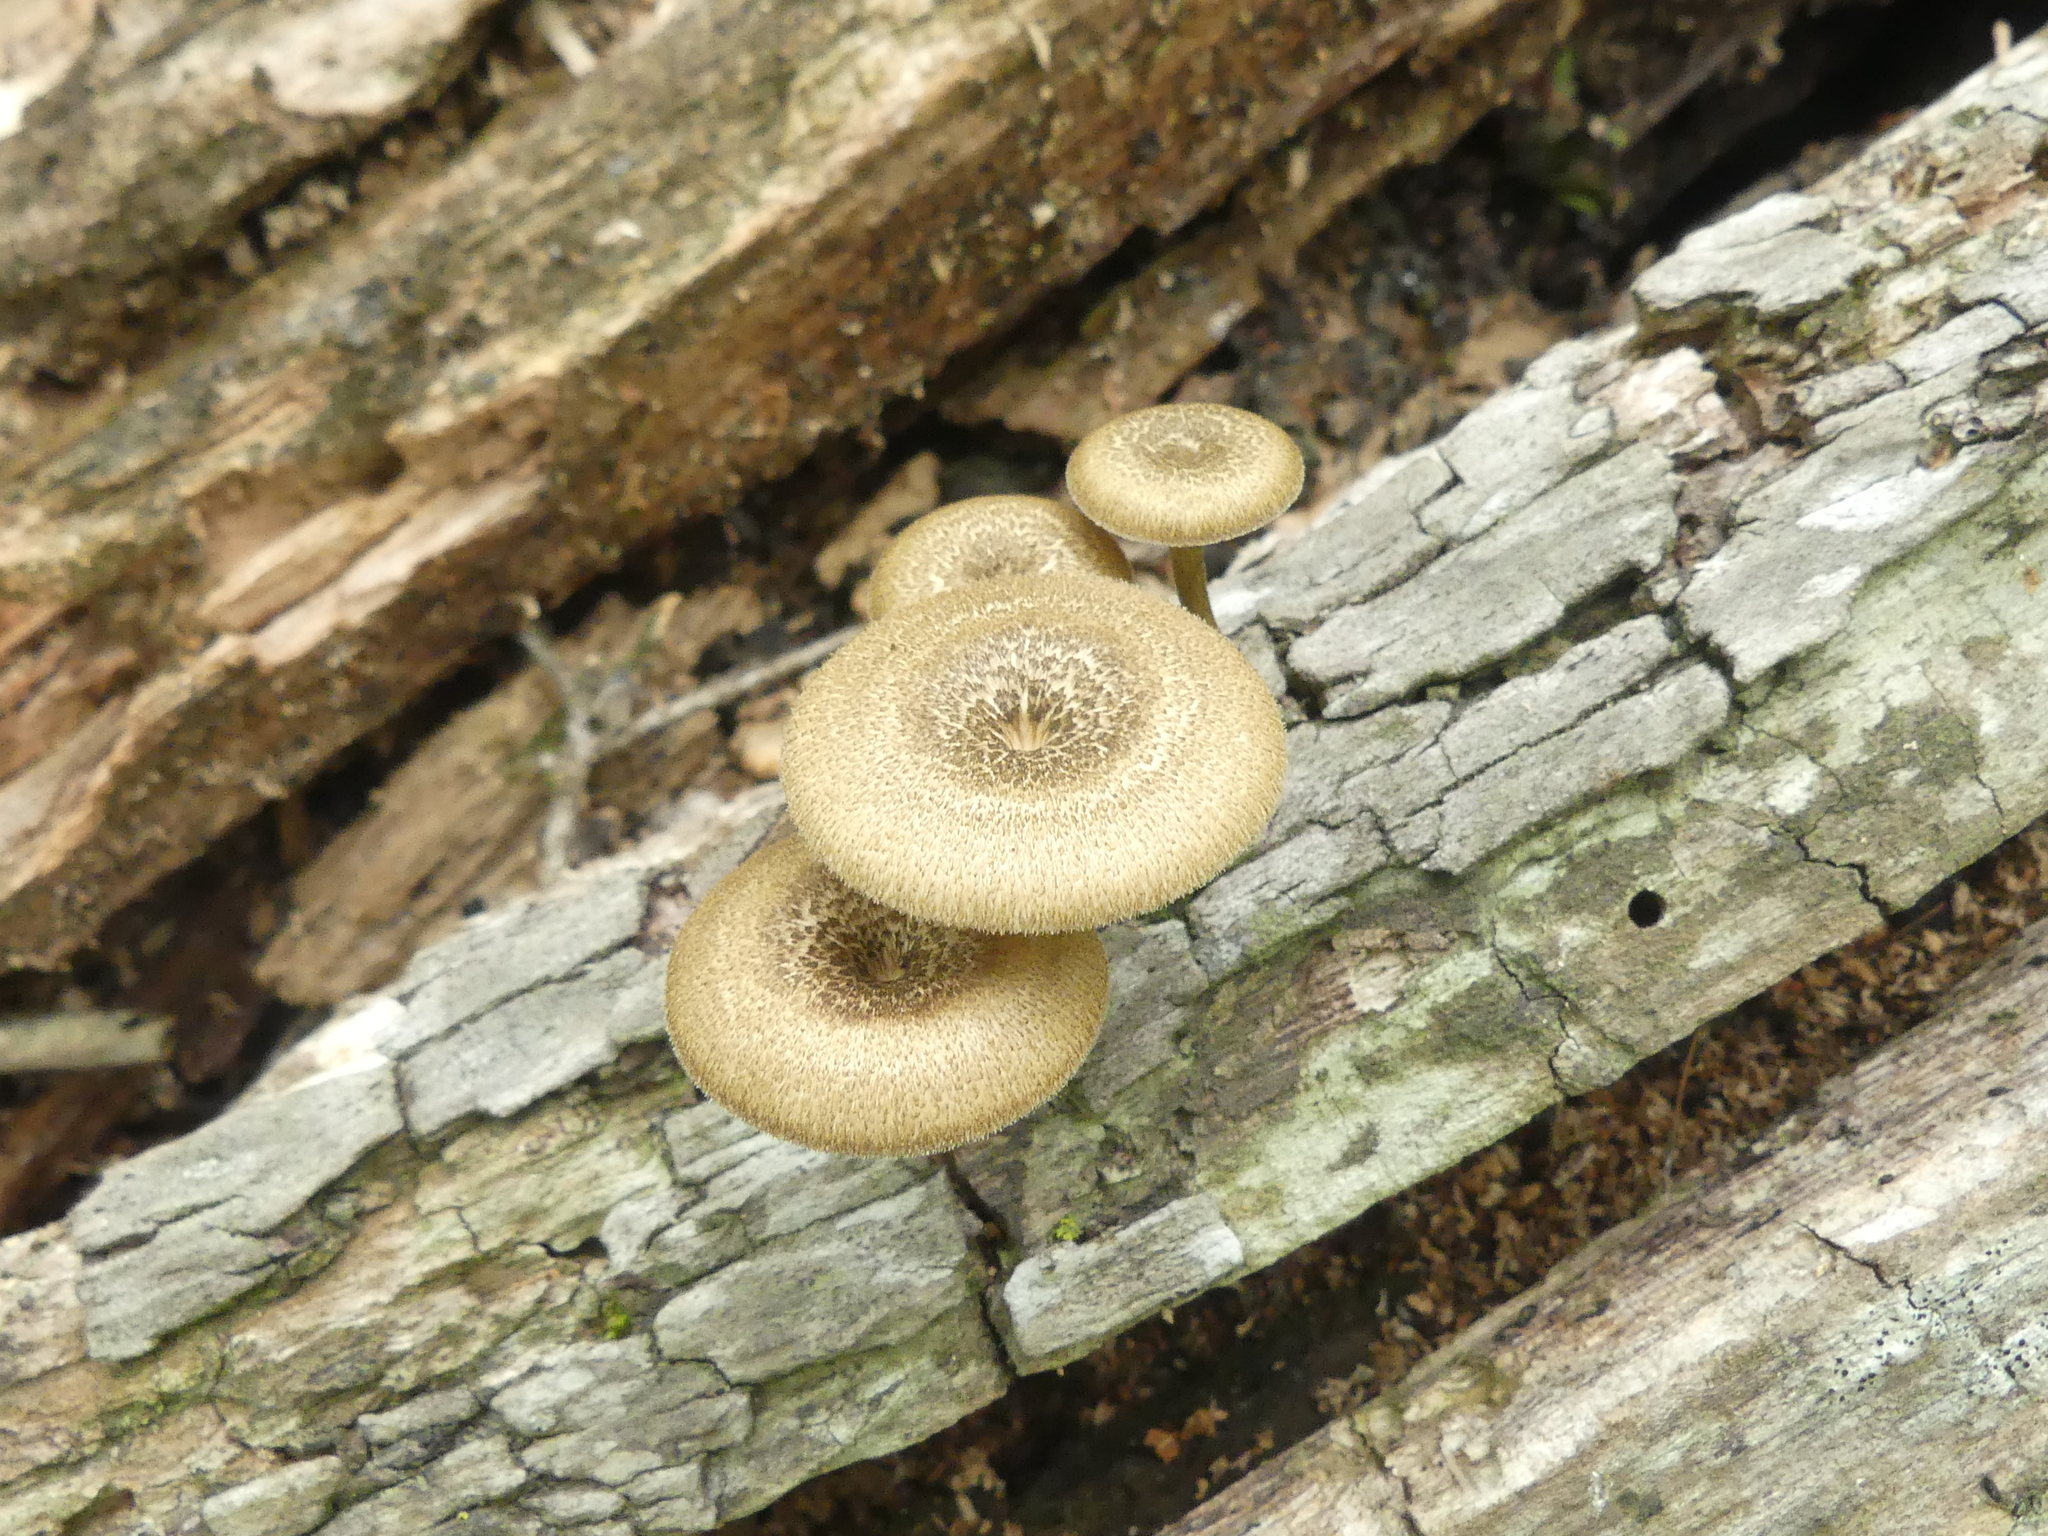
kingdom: Fungi
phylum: Basidiomycota
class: Agaricomycetes
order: Polyporales
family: Polyporaceae
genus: Lentinus
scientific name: Lentinus arcularius
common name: Spring polypore
